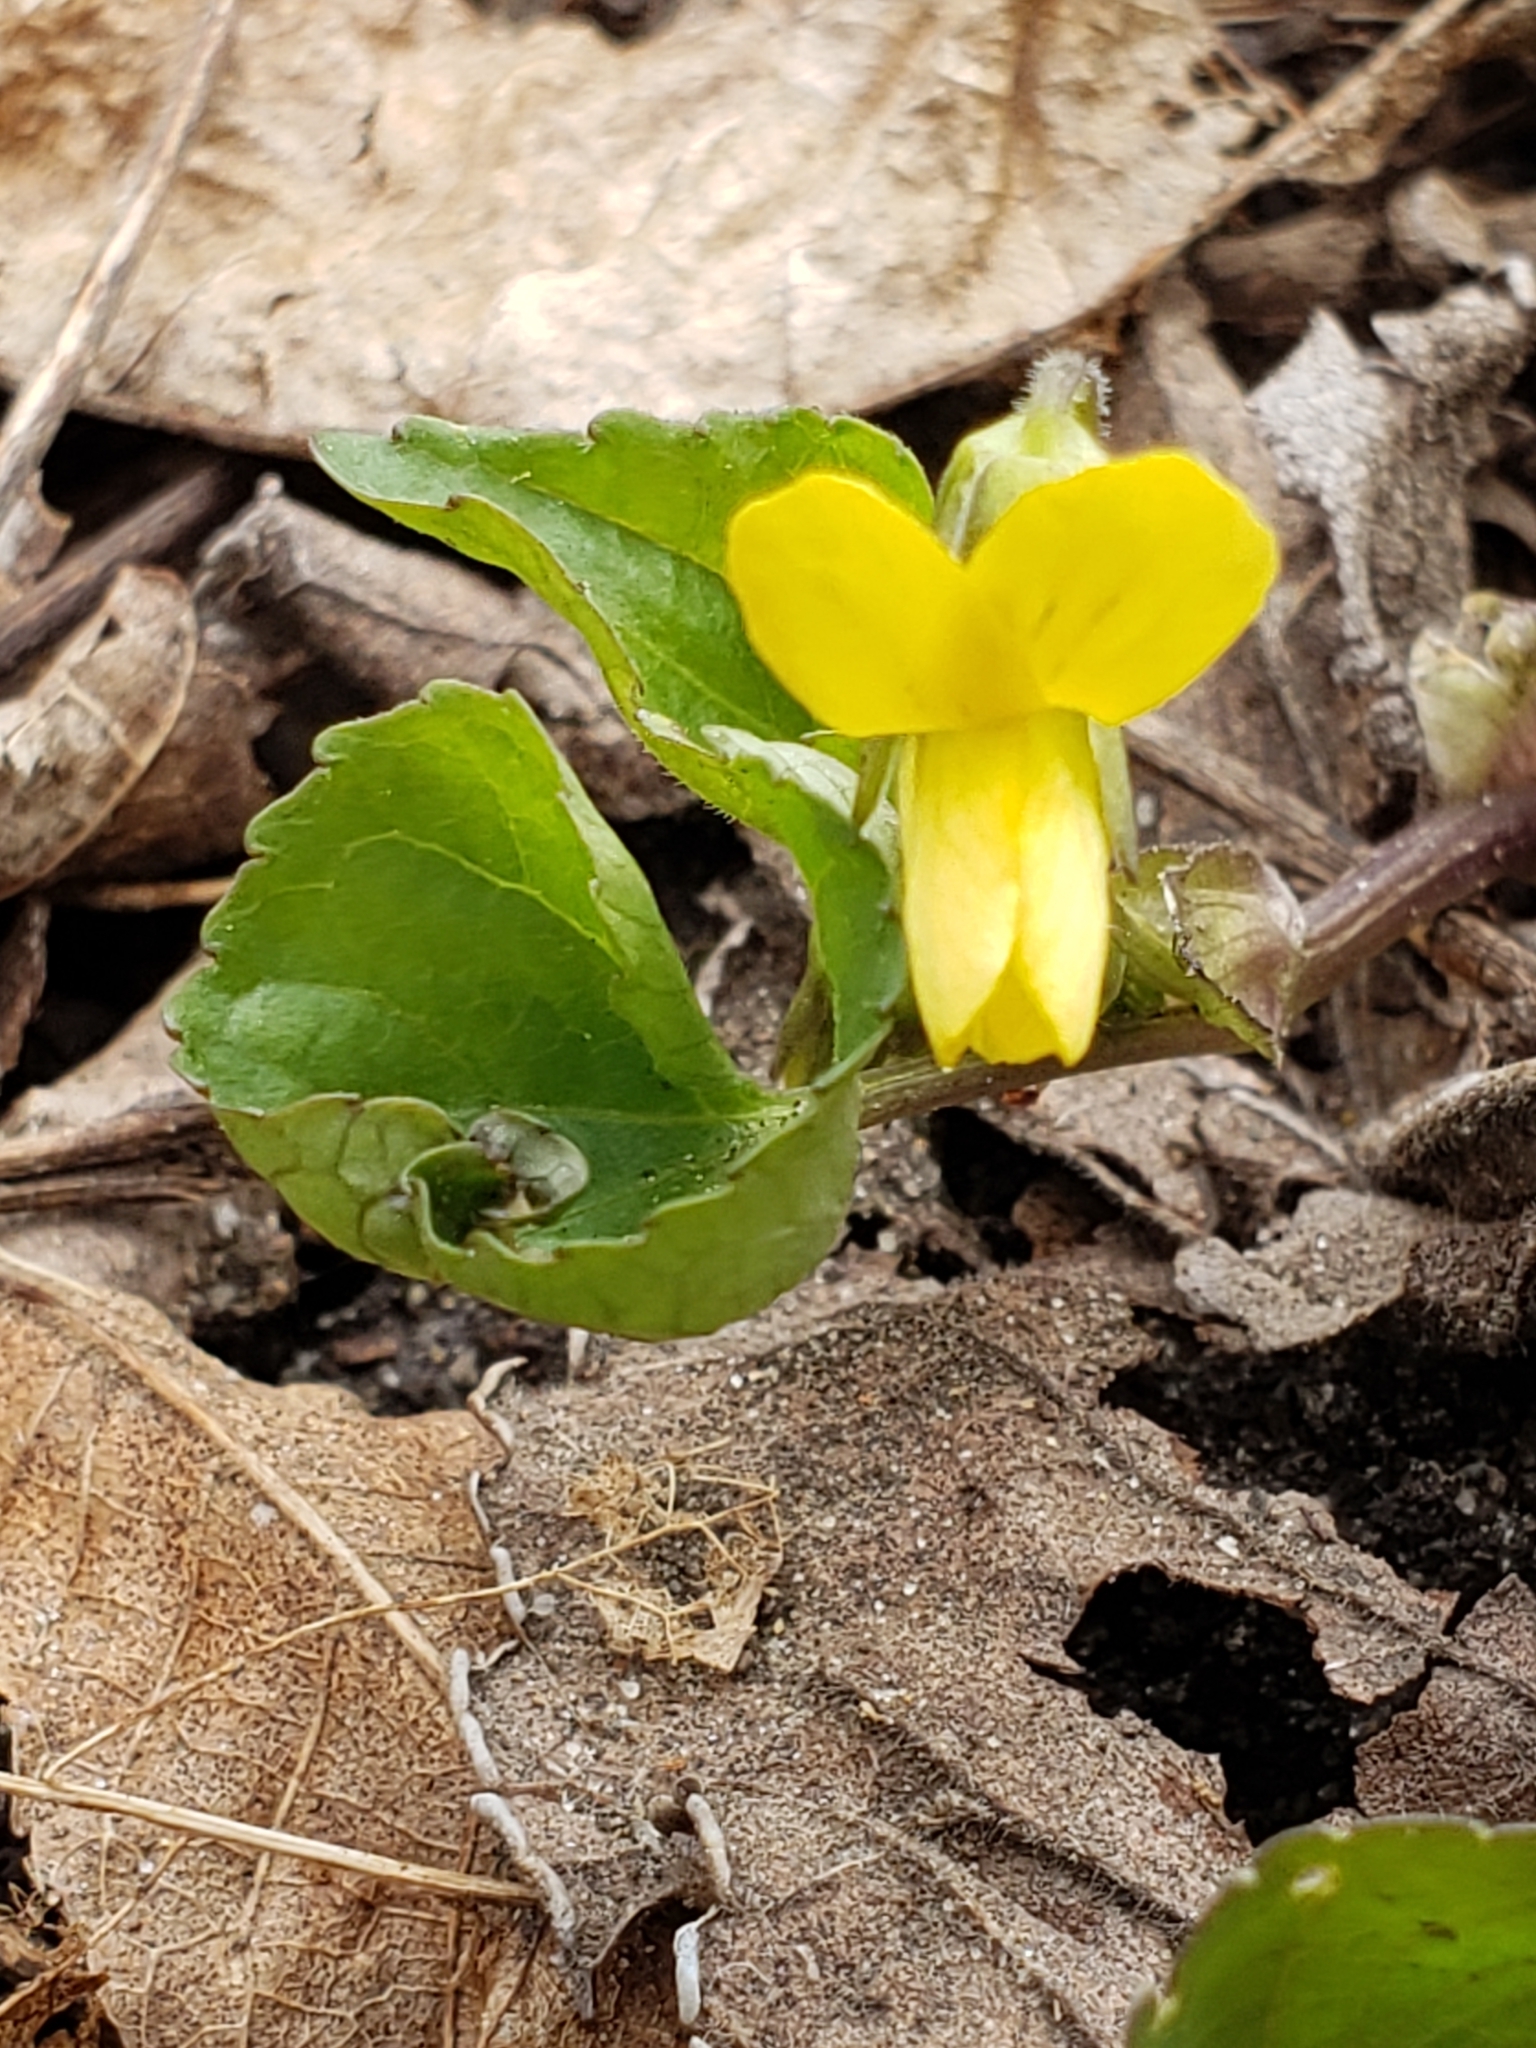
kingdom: Plantae
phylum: Tracheophyta
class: Magnoliopsida
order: Malpighiales
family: Violaceae
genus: Viola
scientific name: Viola eriocarpa
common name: Smooth yellow violet
